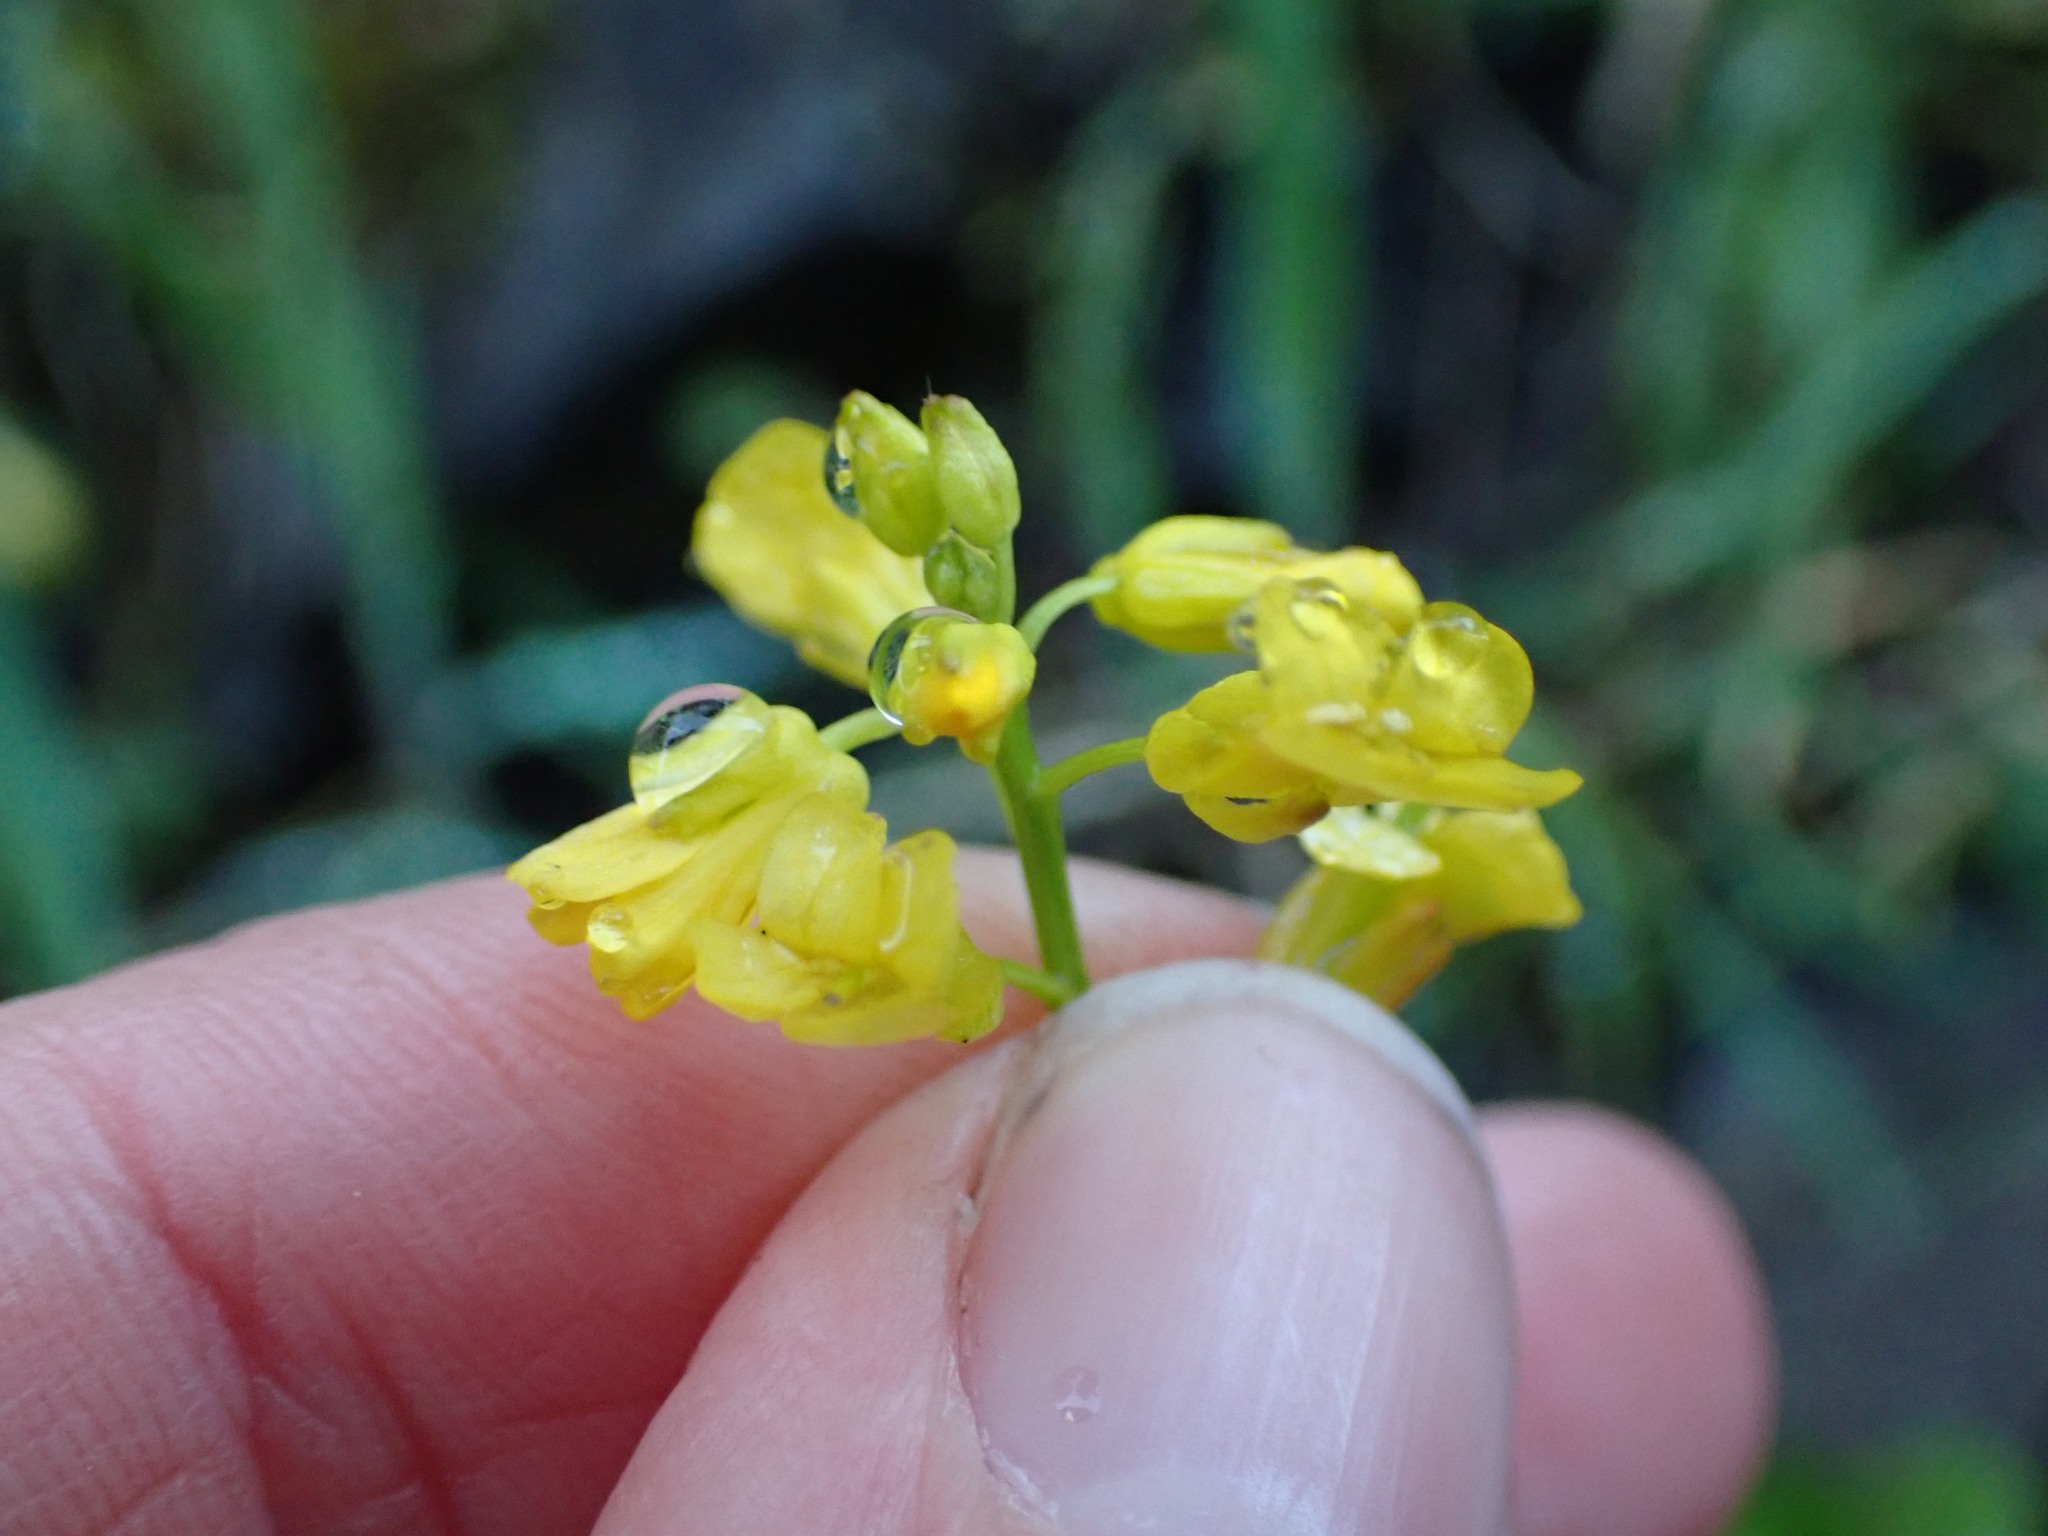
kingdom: Plantae
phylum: Tracheophyta
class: Magnoliopsida
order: Brassicales
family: Brassicaceae
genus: Barbarea
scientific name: Barbarea orthoceras
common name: American wintercress
